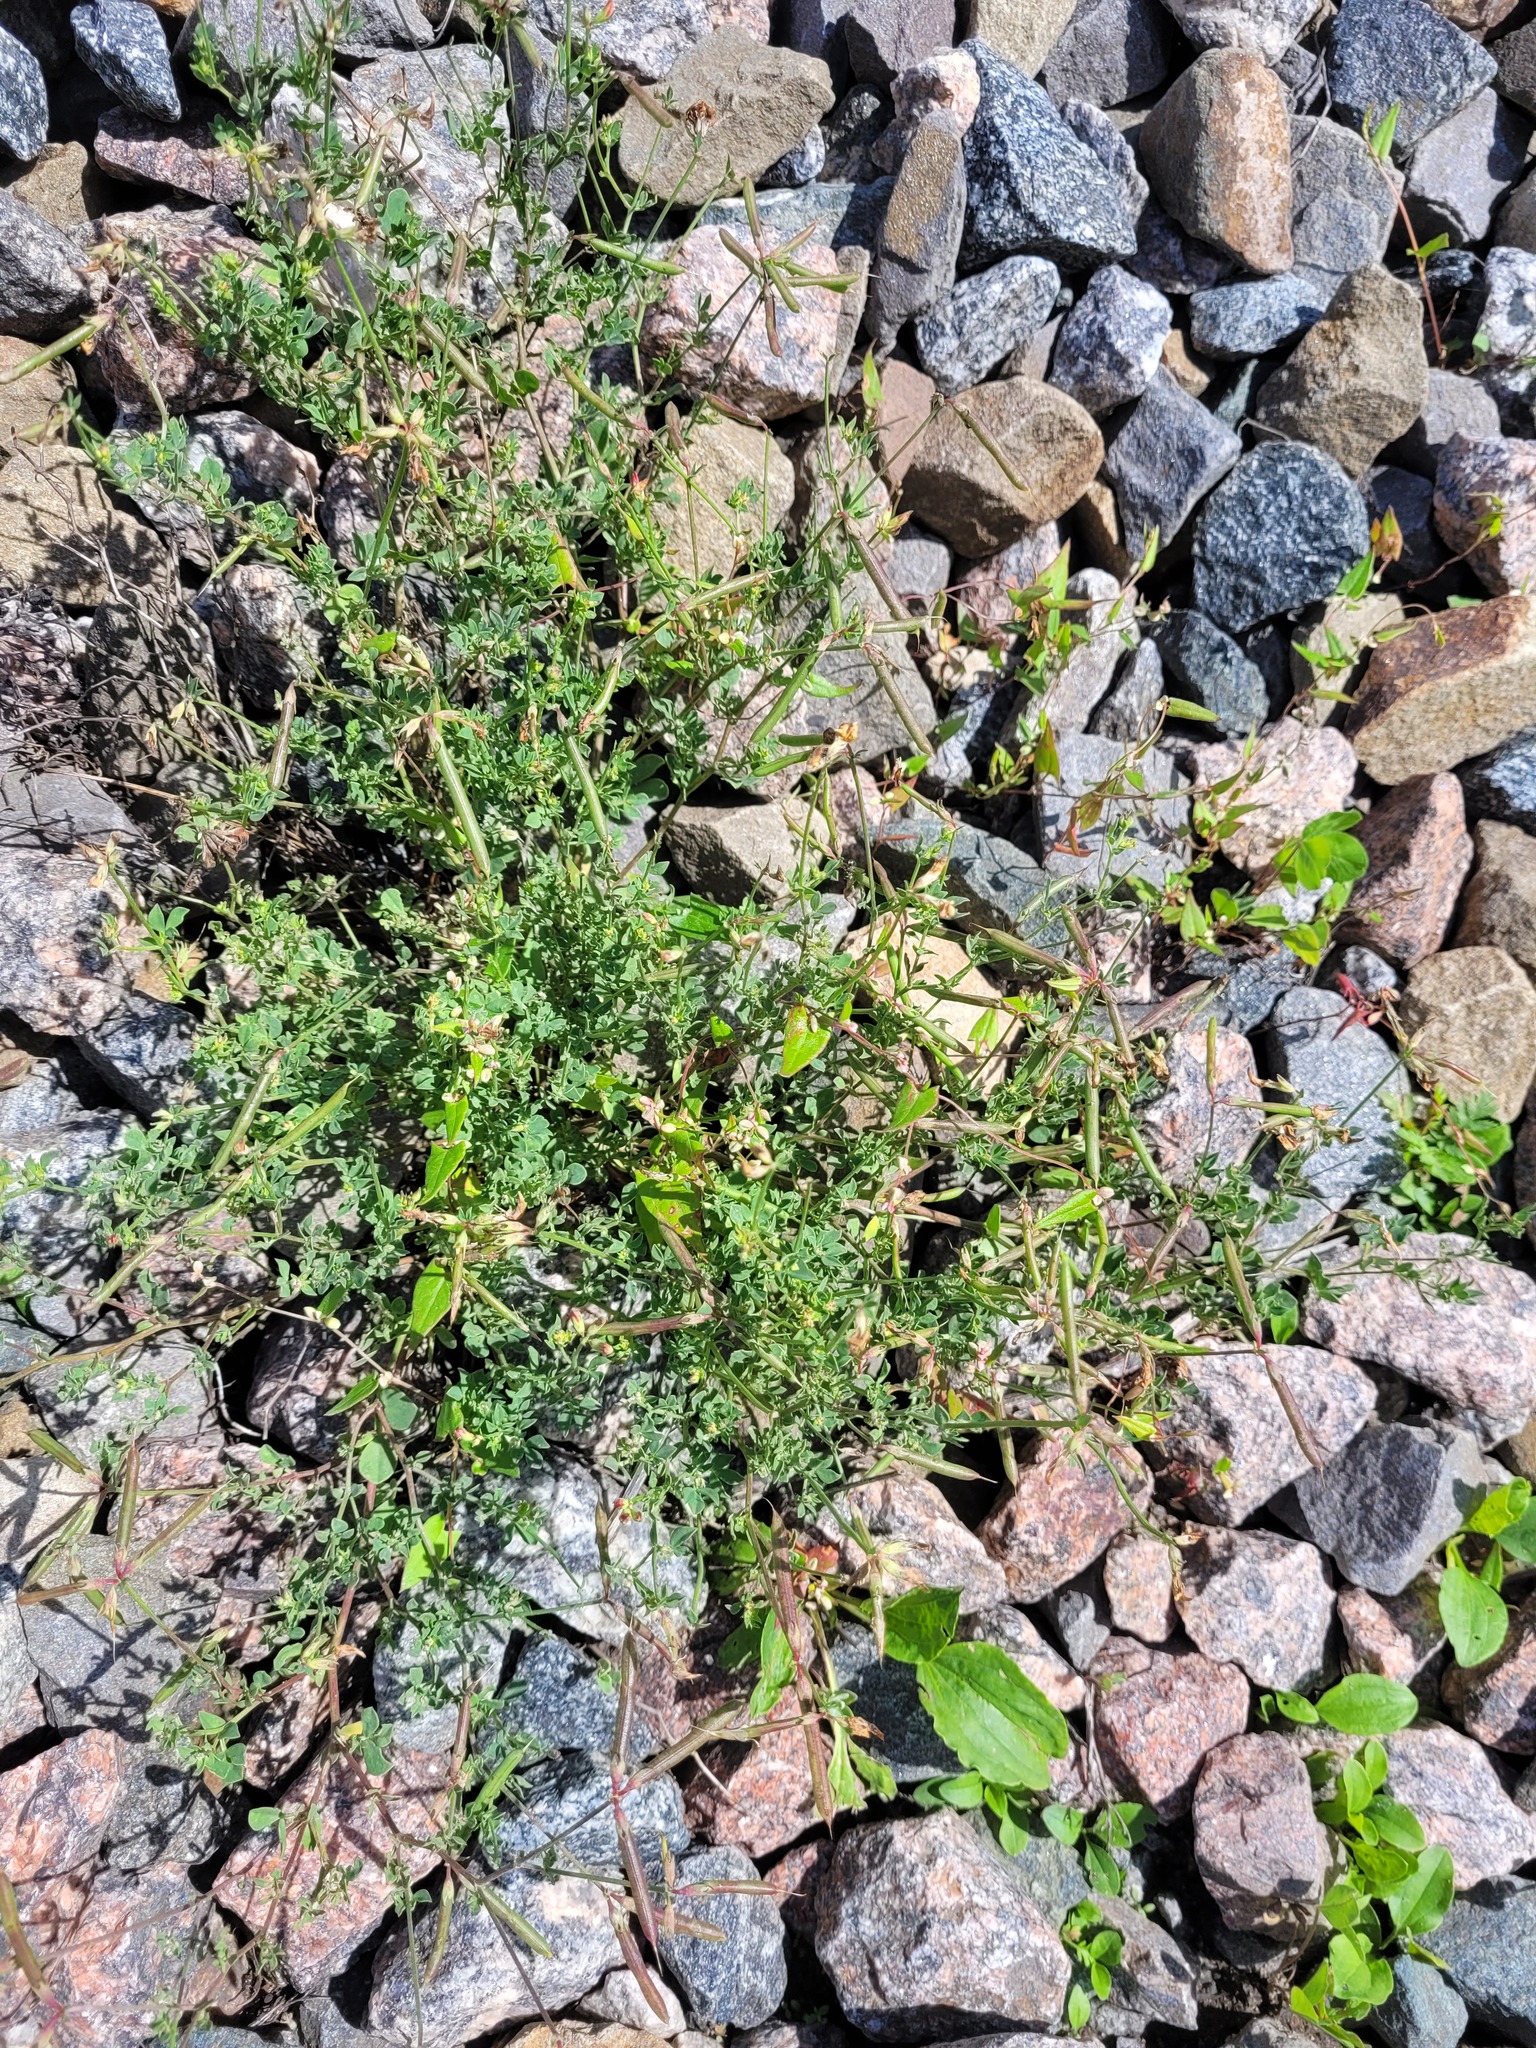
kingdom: Plantae
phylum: Tracheophyta
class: Magnoliopsida
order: Fabales
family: Fabaceae
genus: Lotus
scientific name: Lotus corniculatus
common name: Common bird's-foot-trefoil
